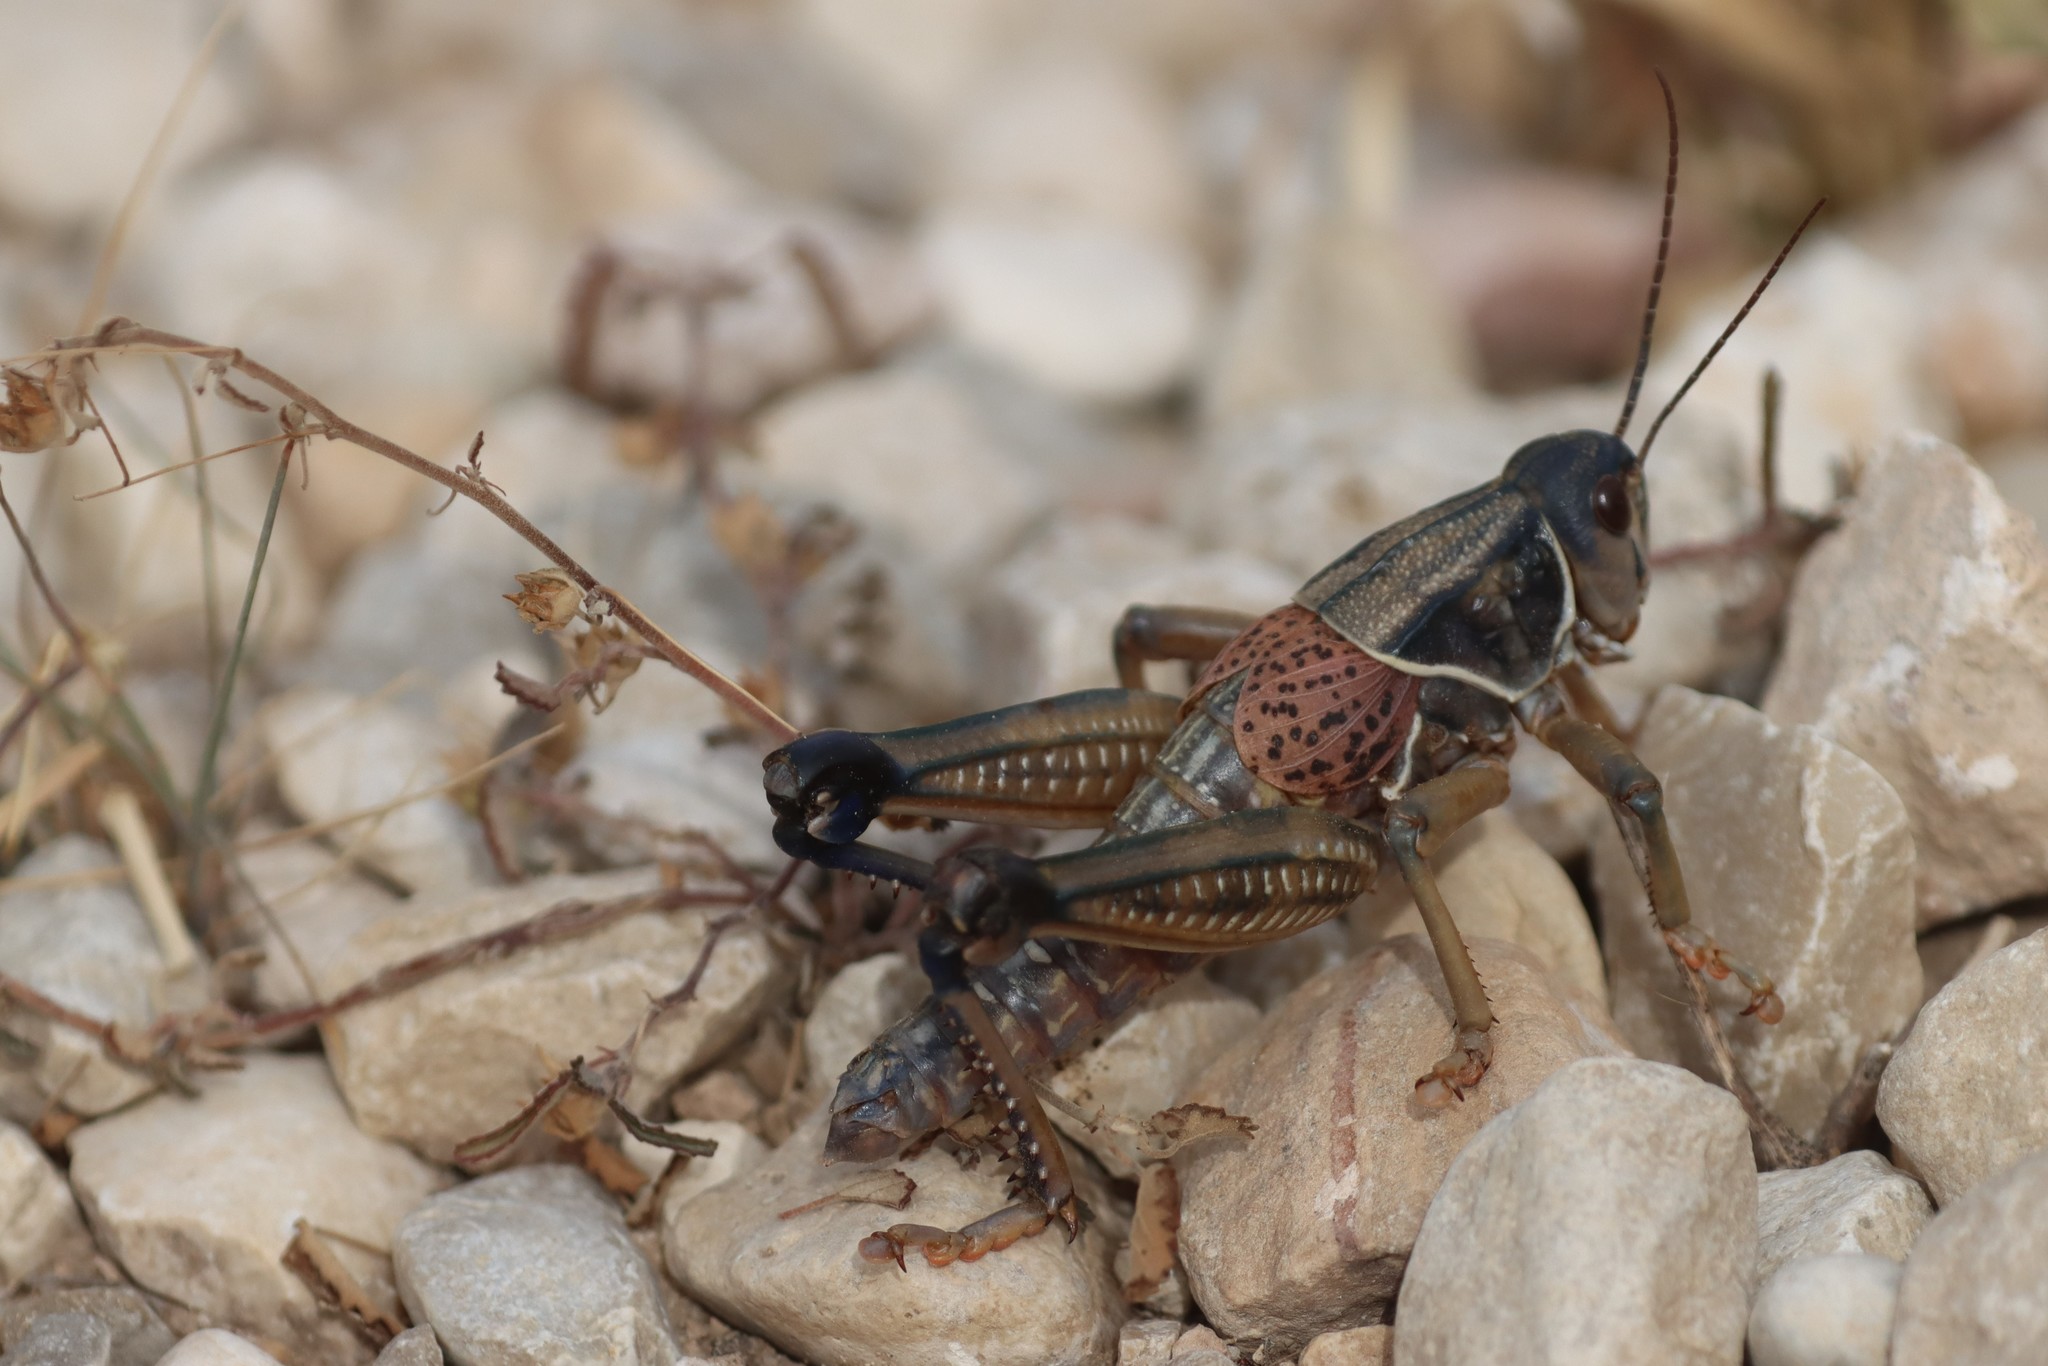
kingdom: Animalia
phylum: Arthropoda
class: Insecta
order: Orthoptera
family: Romaleidae
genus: Brachystola
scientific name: Brachystola magna
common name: Plains lubber grasshopper
